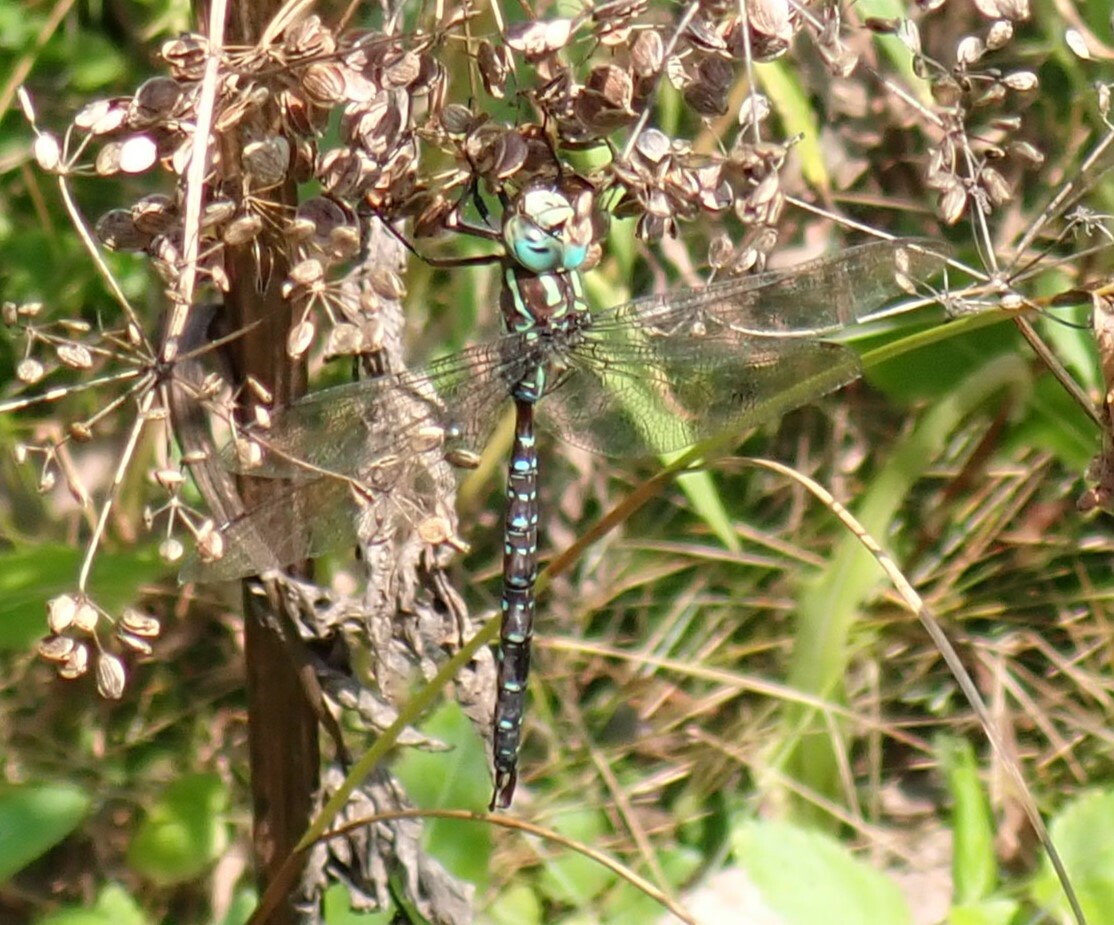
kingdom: Animalia
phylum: Arthropoda
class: Insecta
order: Odonata
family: Aeshnidae
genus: Aeshna
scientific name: Aeshna umbrosa
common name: Shadow darner
